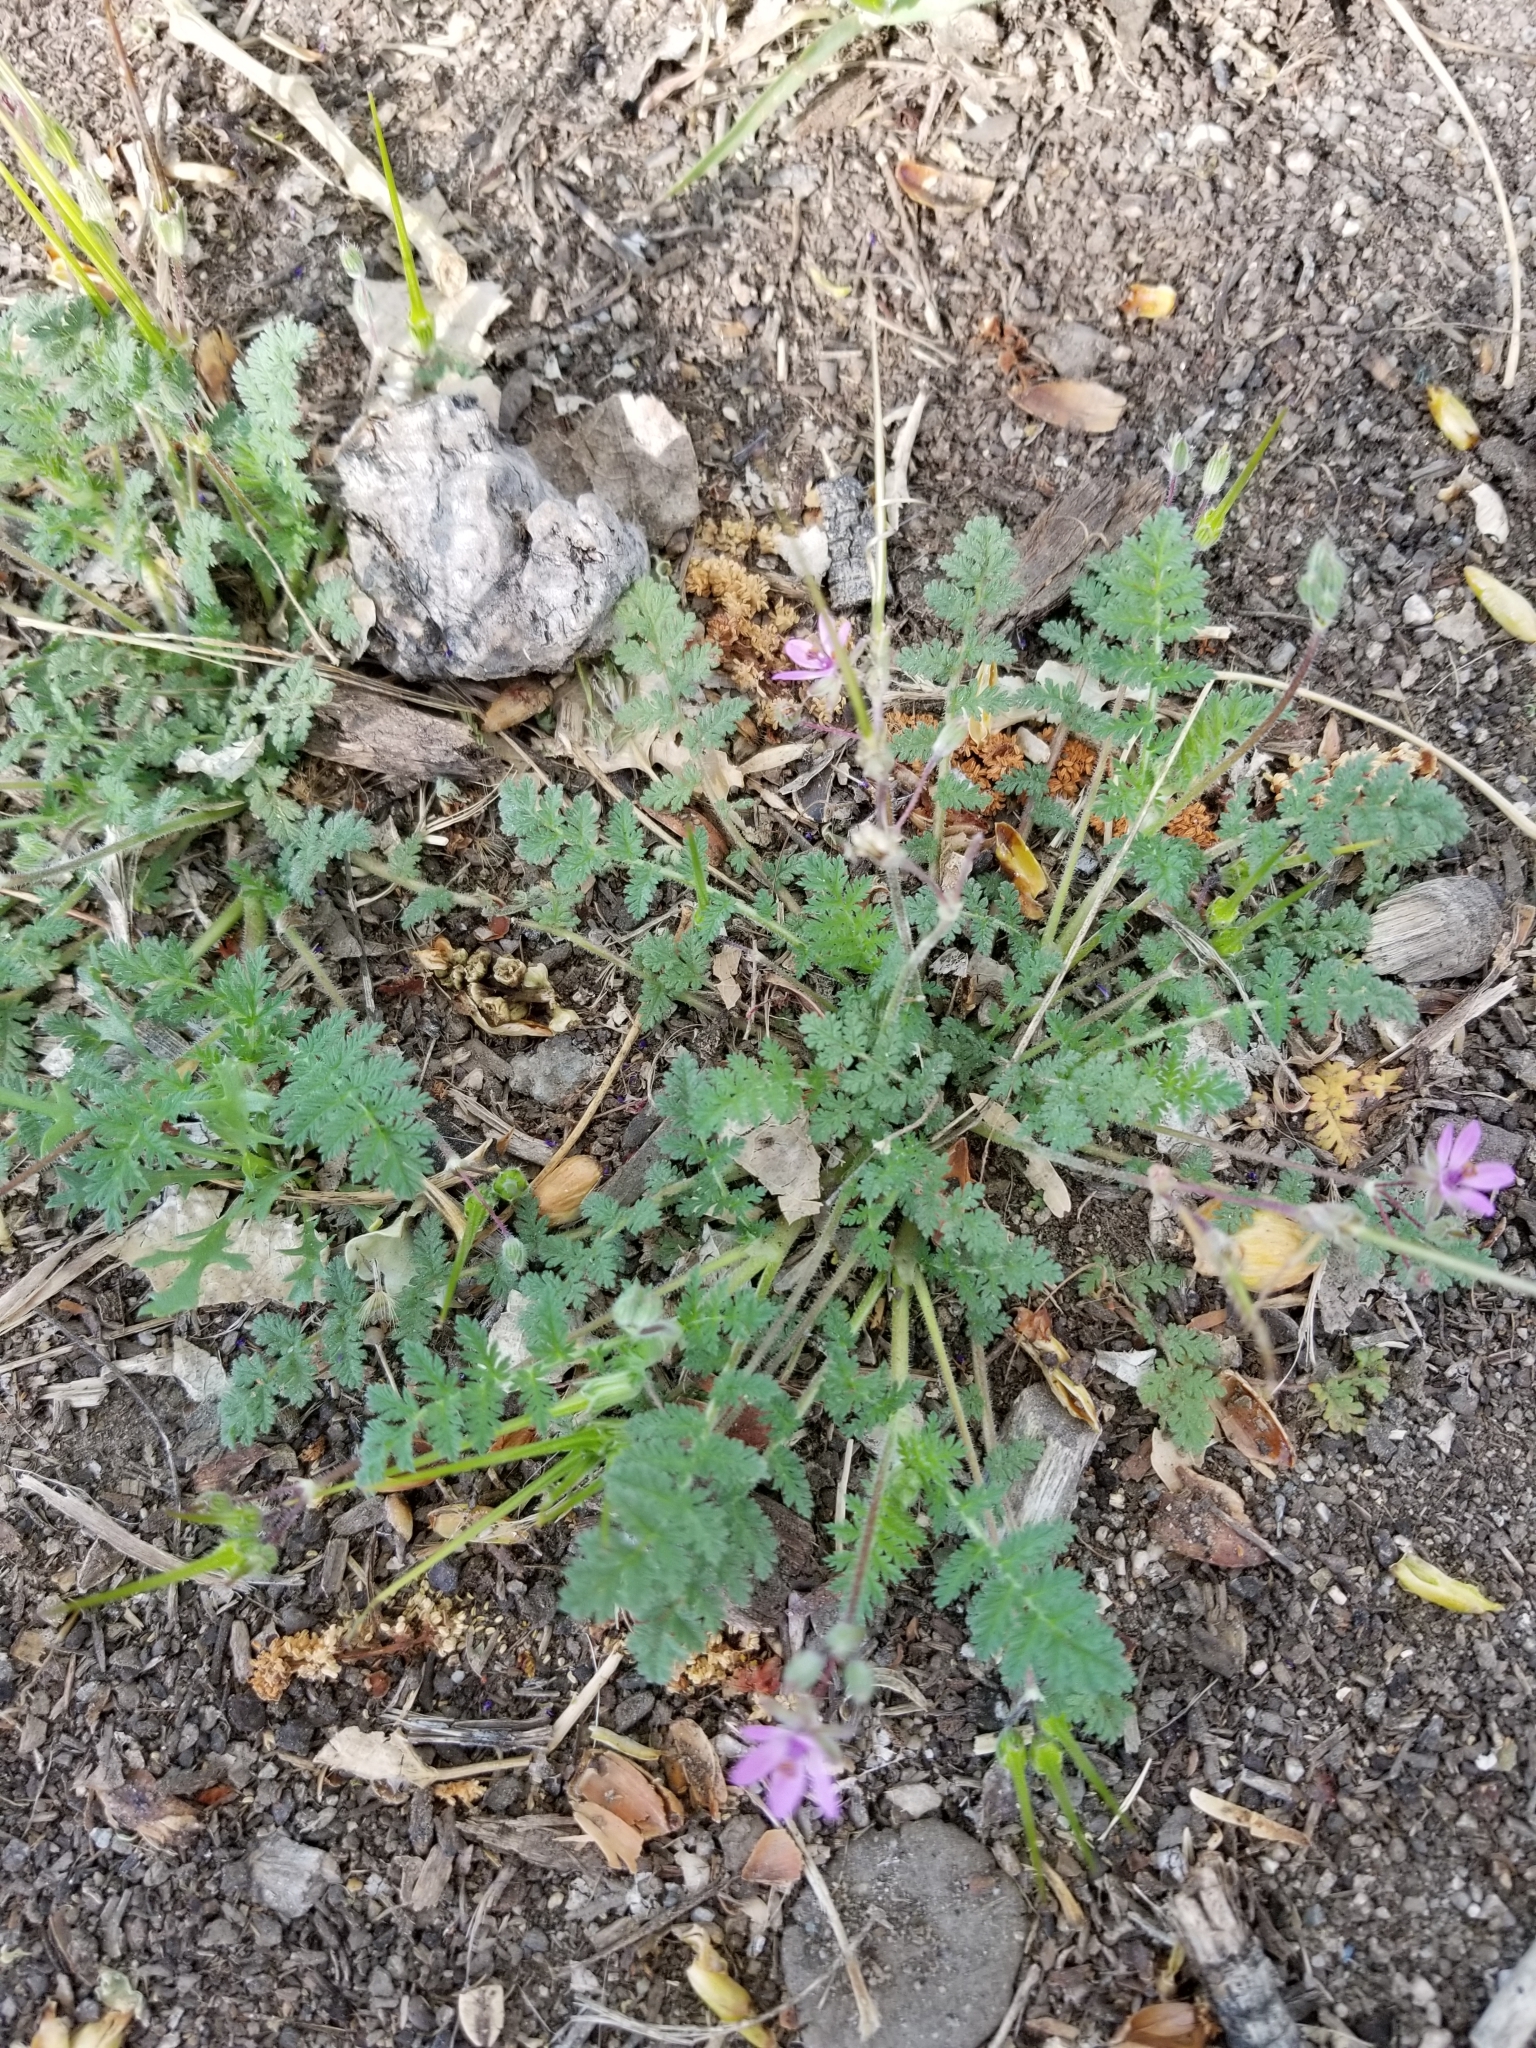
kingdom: Plantae
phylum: Tracheophyta
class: Magnoliopsida
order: Geraniales
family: Geraniaceae
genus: Erodium
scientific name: Erodium cicutarium
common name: Common stork's-bill
